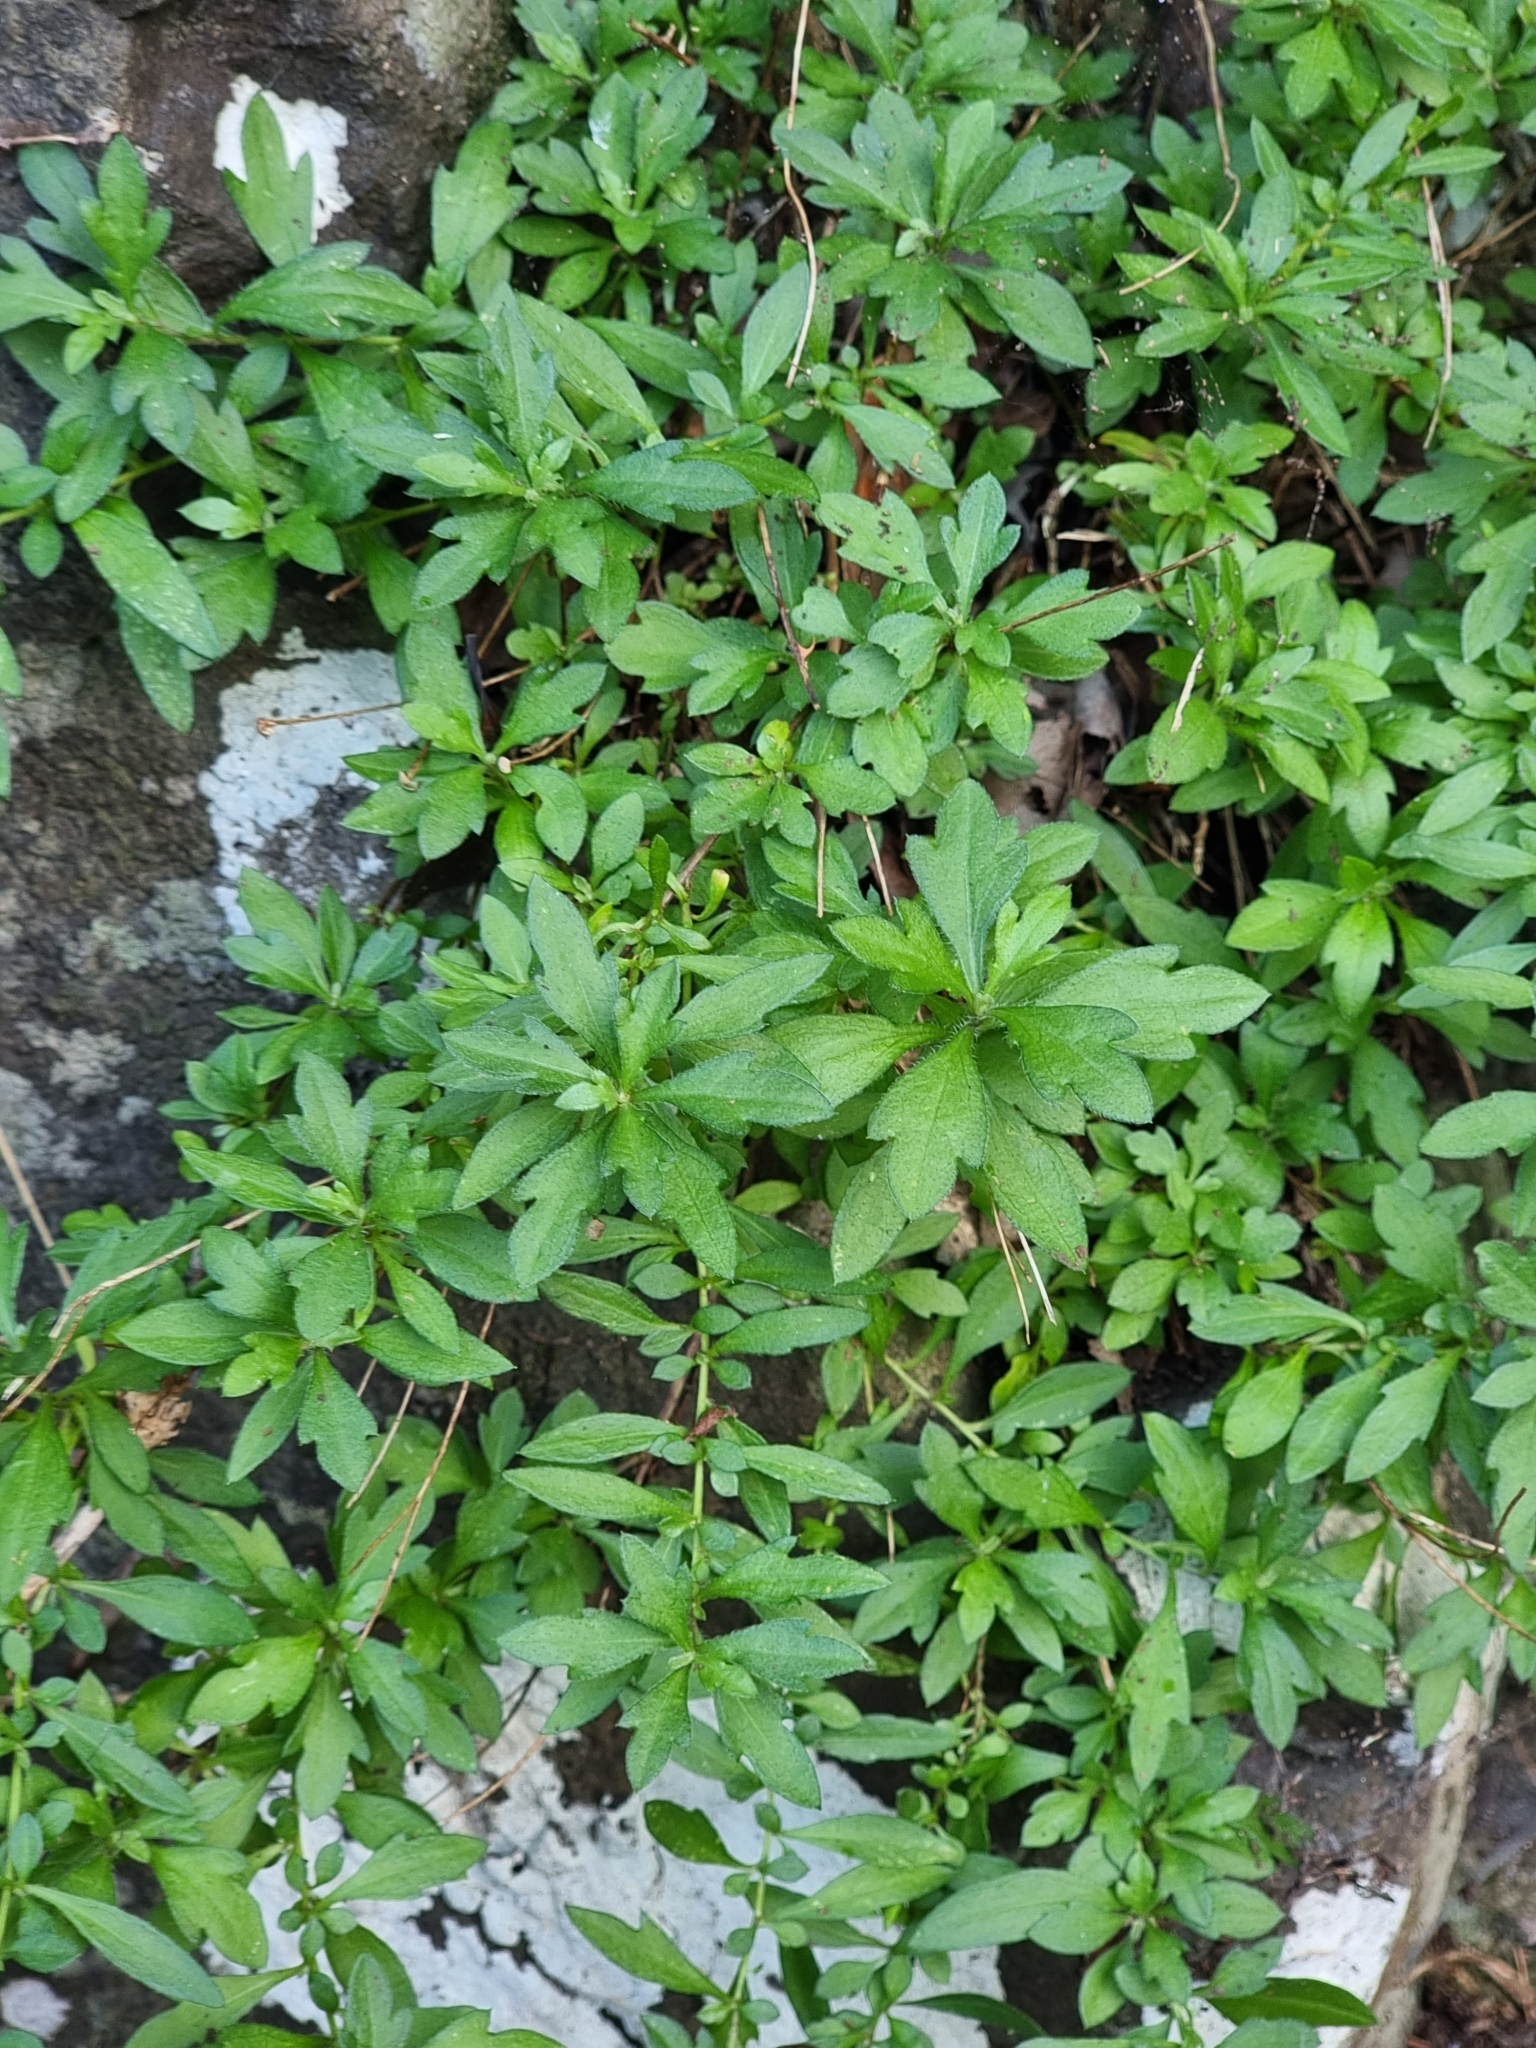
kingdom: Plantae
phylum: Tracheophyta
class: Magnoliopsida
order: Asterales
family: Asteraceae
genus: Erigeron
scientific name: Erigeron karvinskianus
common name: Mexican fleabane
